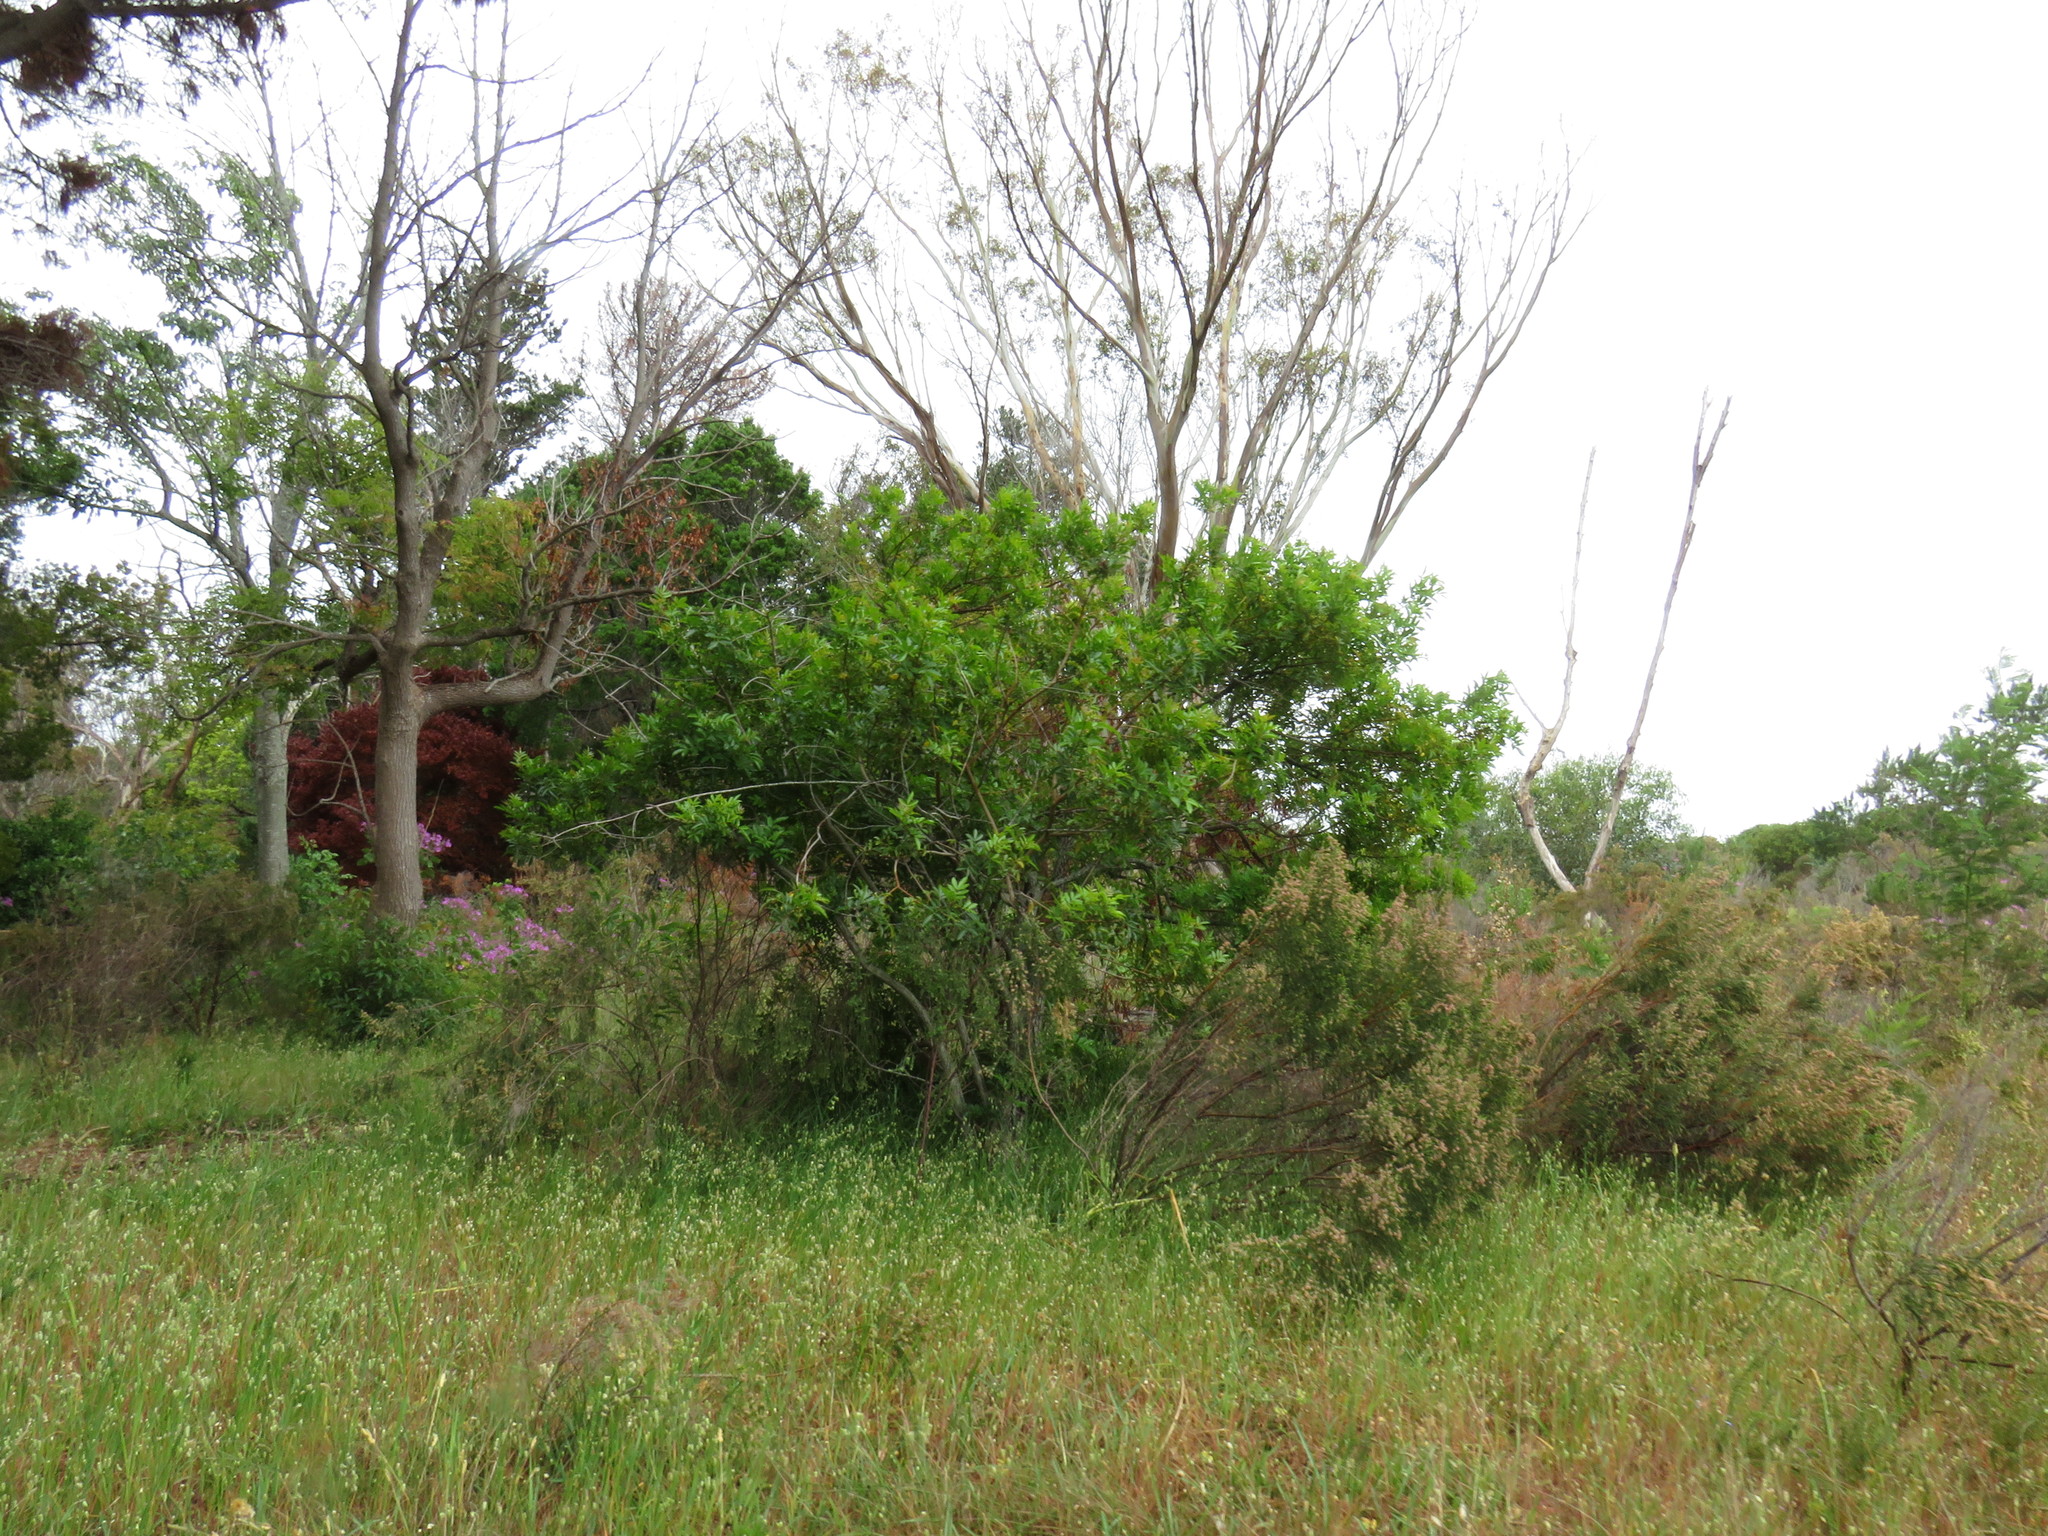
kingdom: Plantae
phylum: Tracheophyta
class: Magnoliopsida
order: Sapindales
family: Anacardiaceae
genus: Schinus
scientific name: Schinus terebinthifolia
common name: Brazilian peppertree
